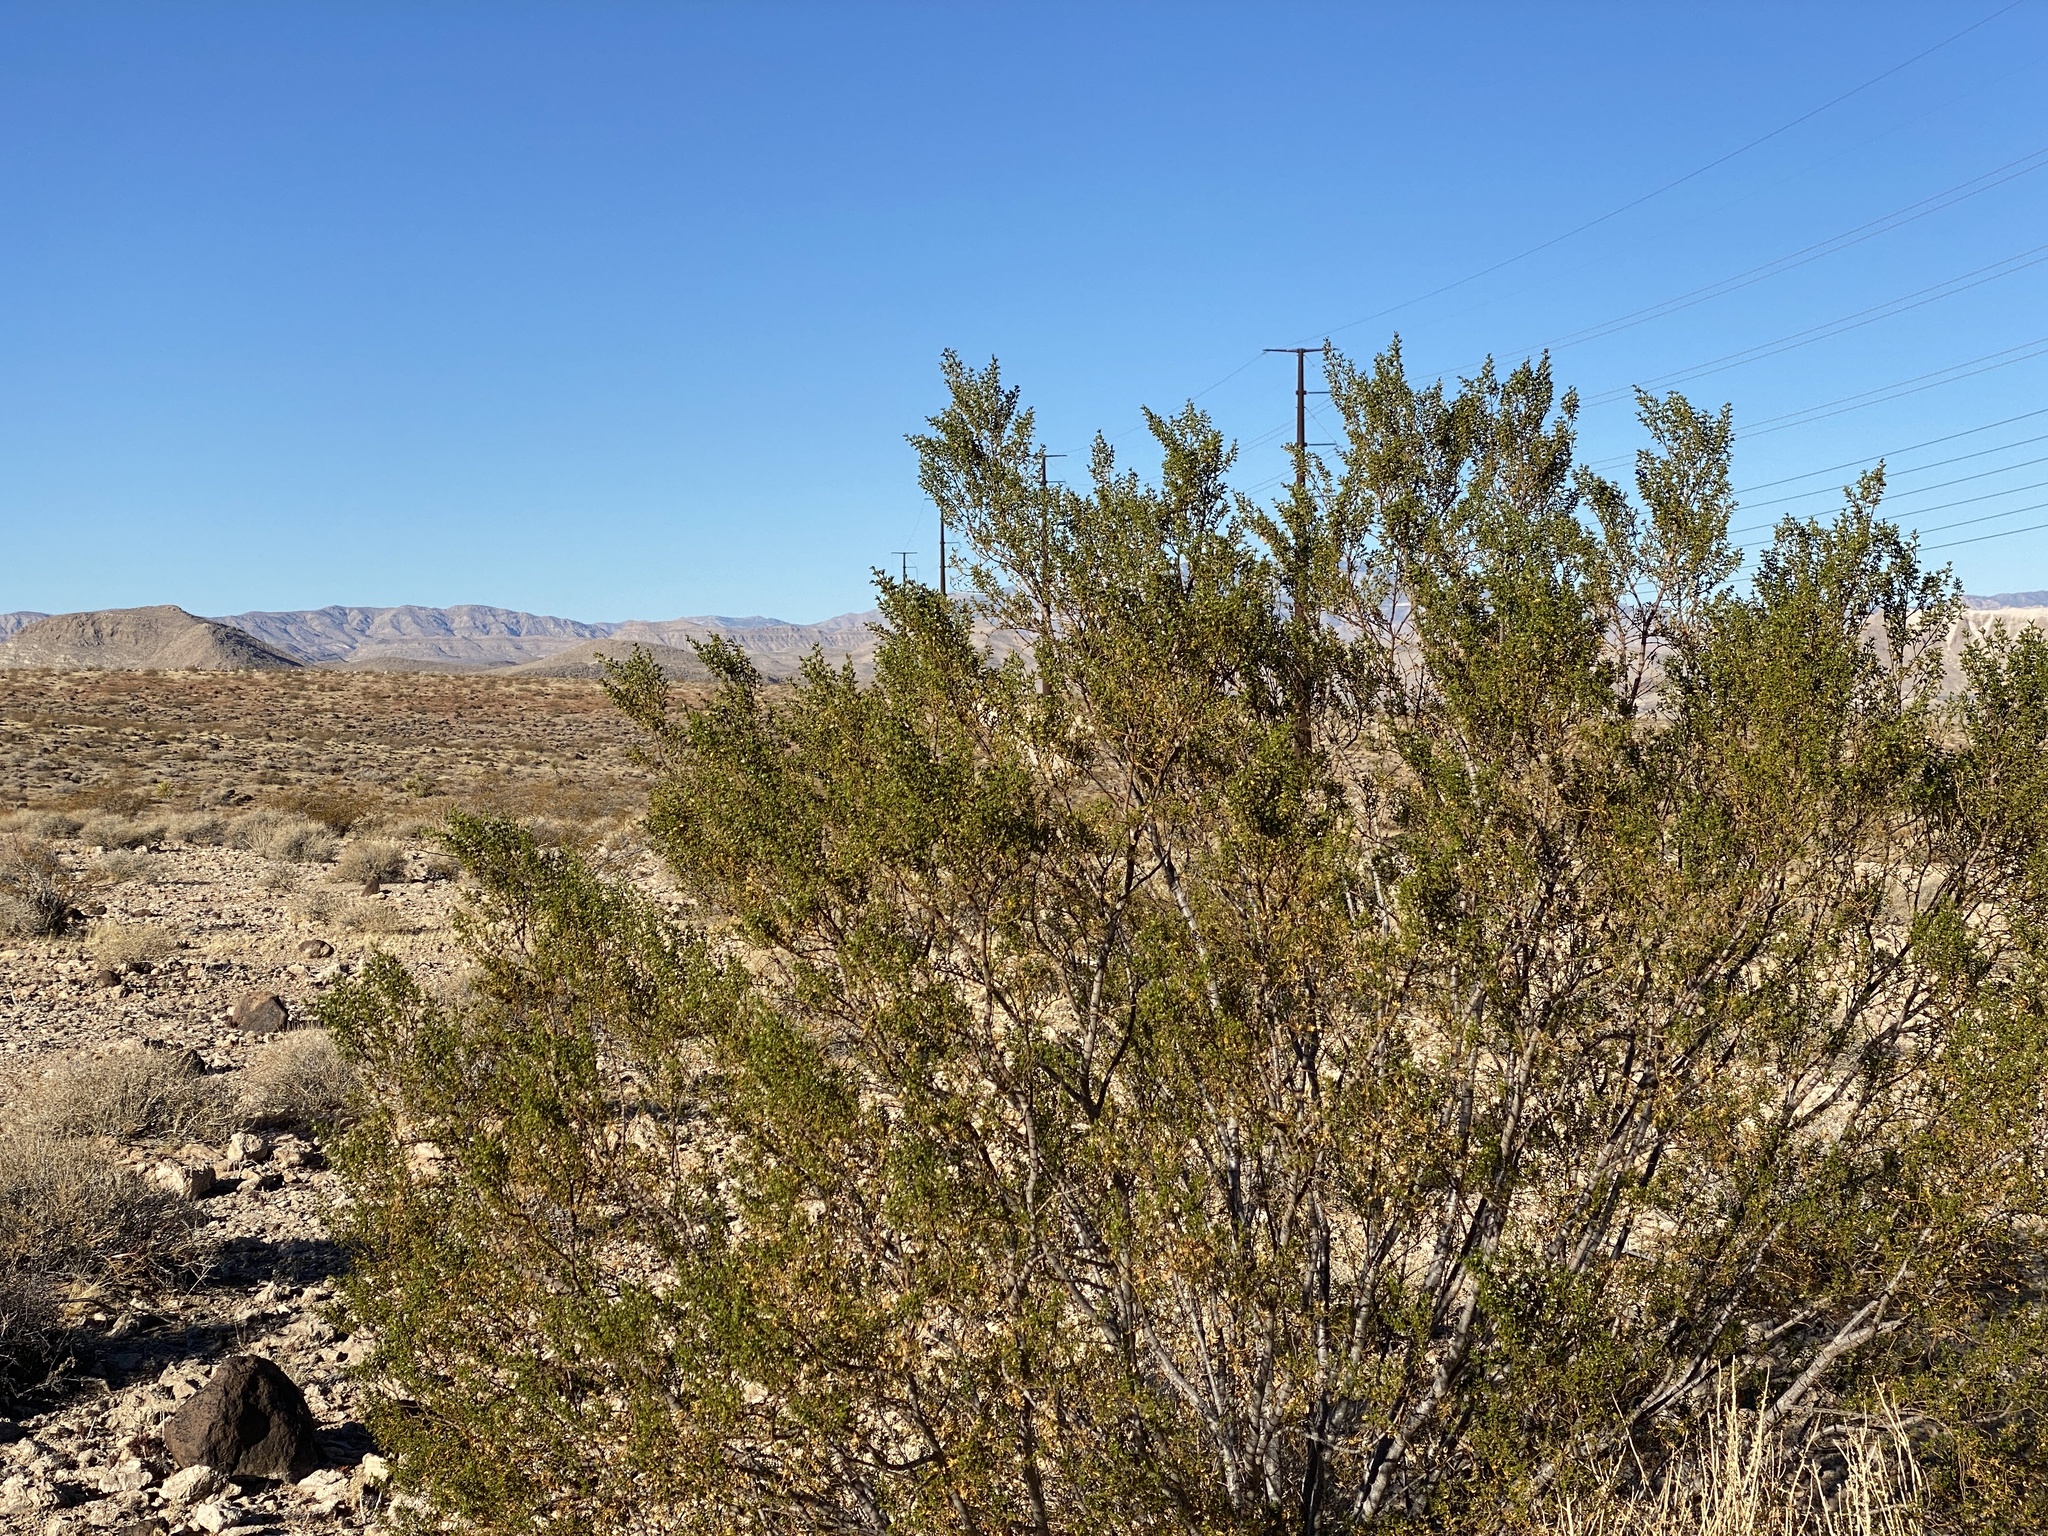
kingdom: Plantae
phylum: Tracheophyta
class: Magnoliopsida
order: Zygophyllales
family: Zygophyllaceae
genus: Larrea
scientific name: Larrea tridentata
